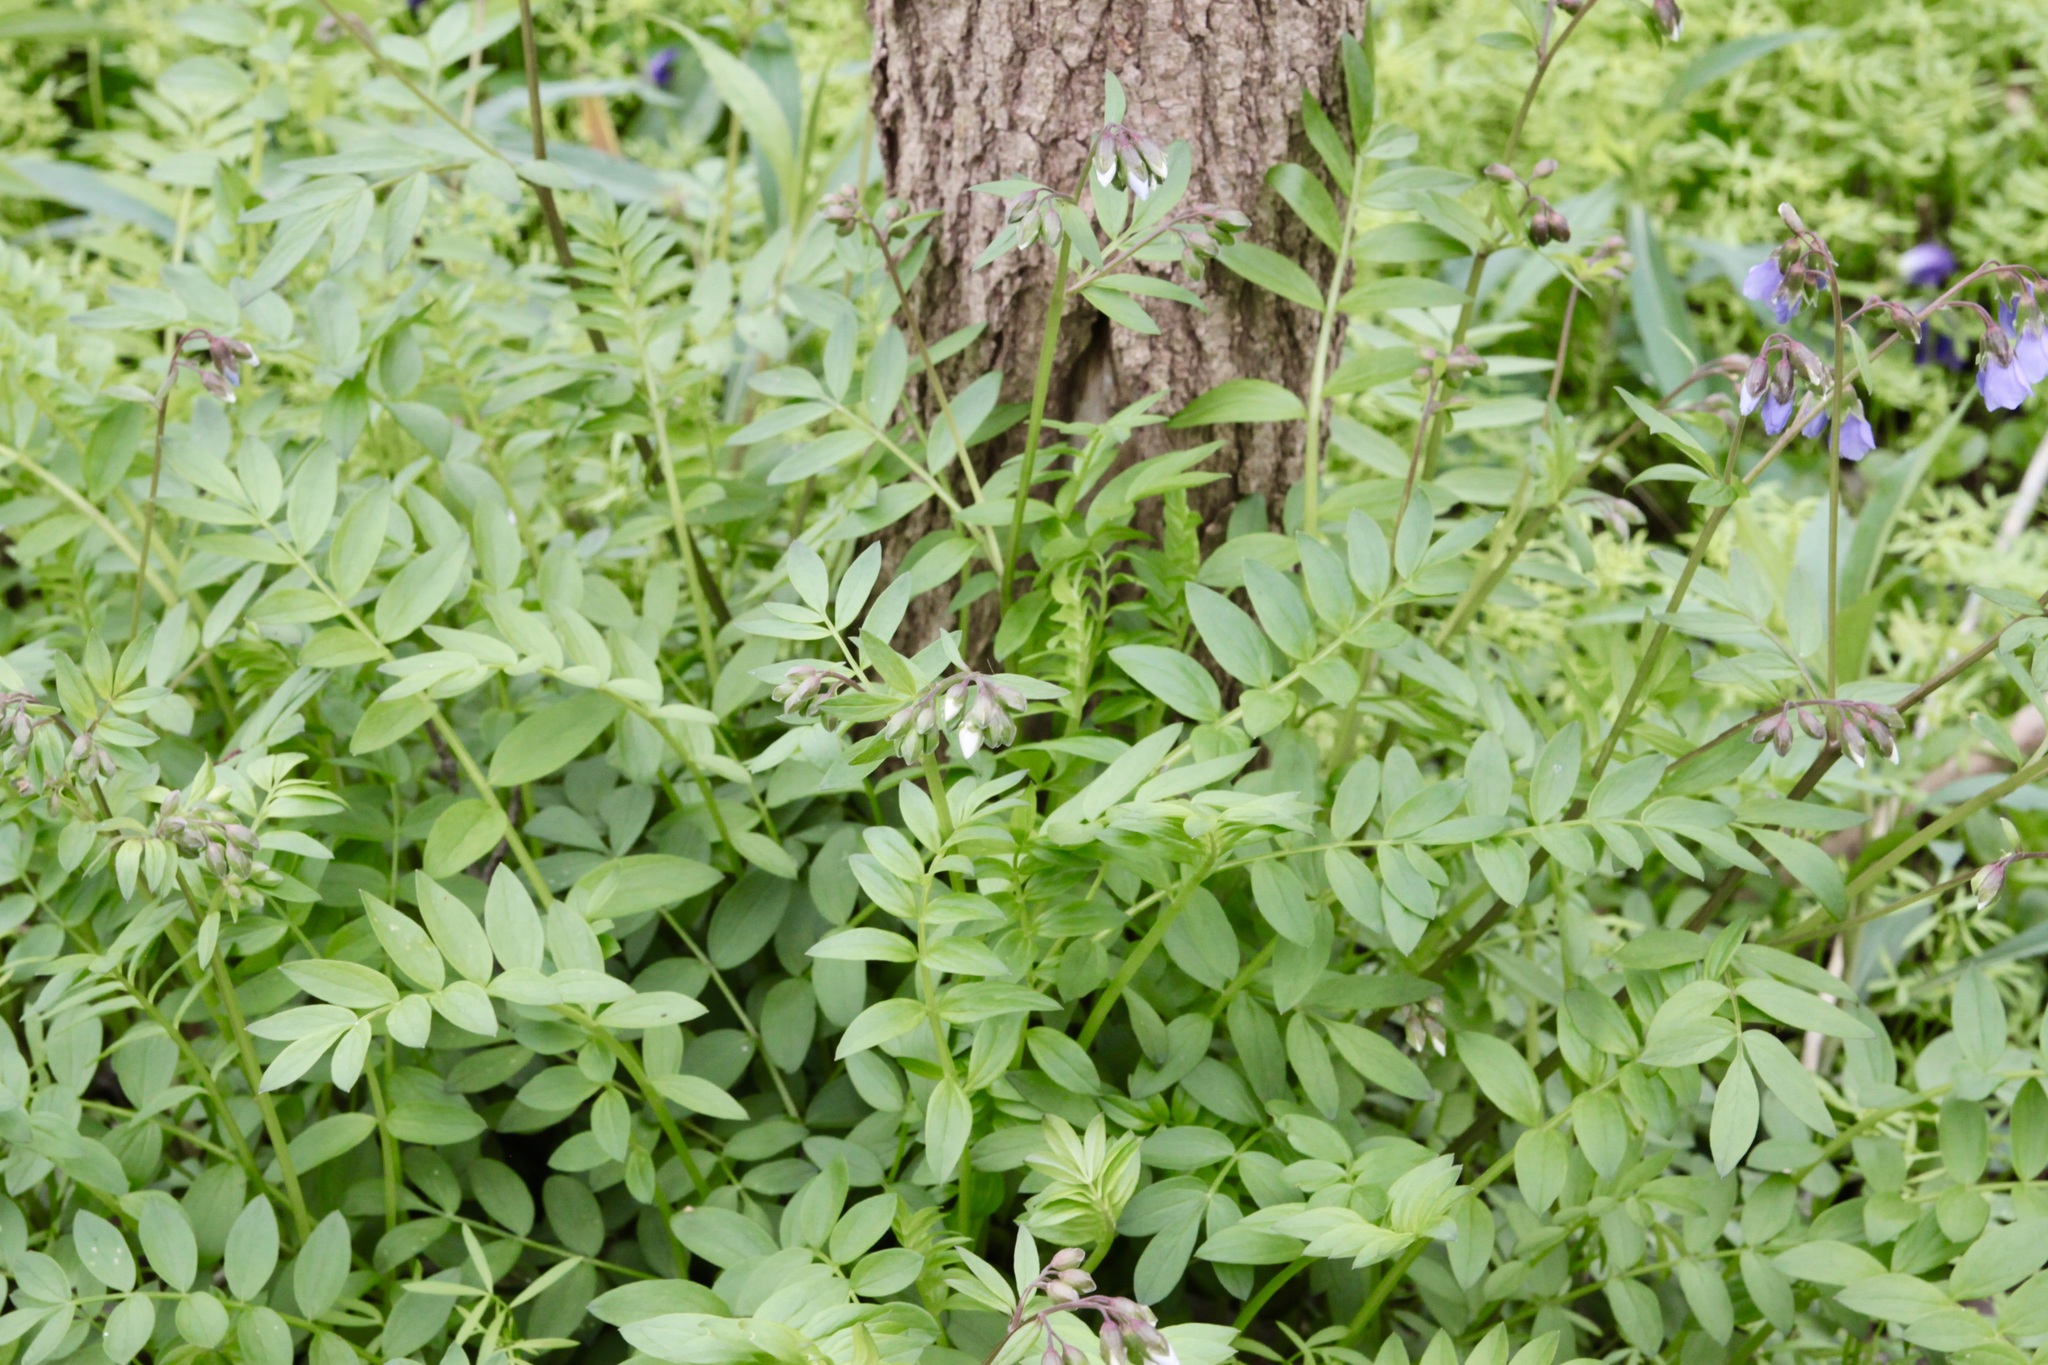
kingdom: Plantae
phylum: Tracheophyta
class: Magnoliopsida
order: Ericales
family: Polemoniaceae
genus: Polemonium
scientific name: Polemonium reptans
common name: Creeping jacob's-ladder
